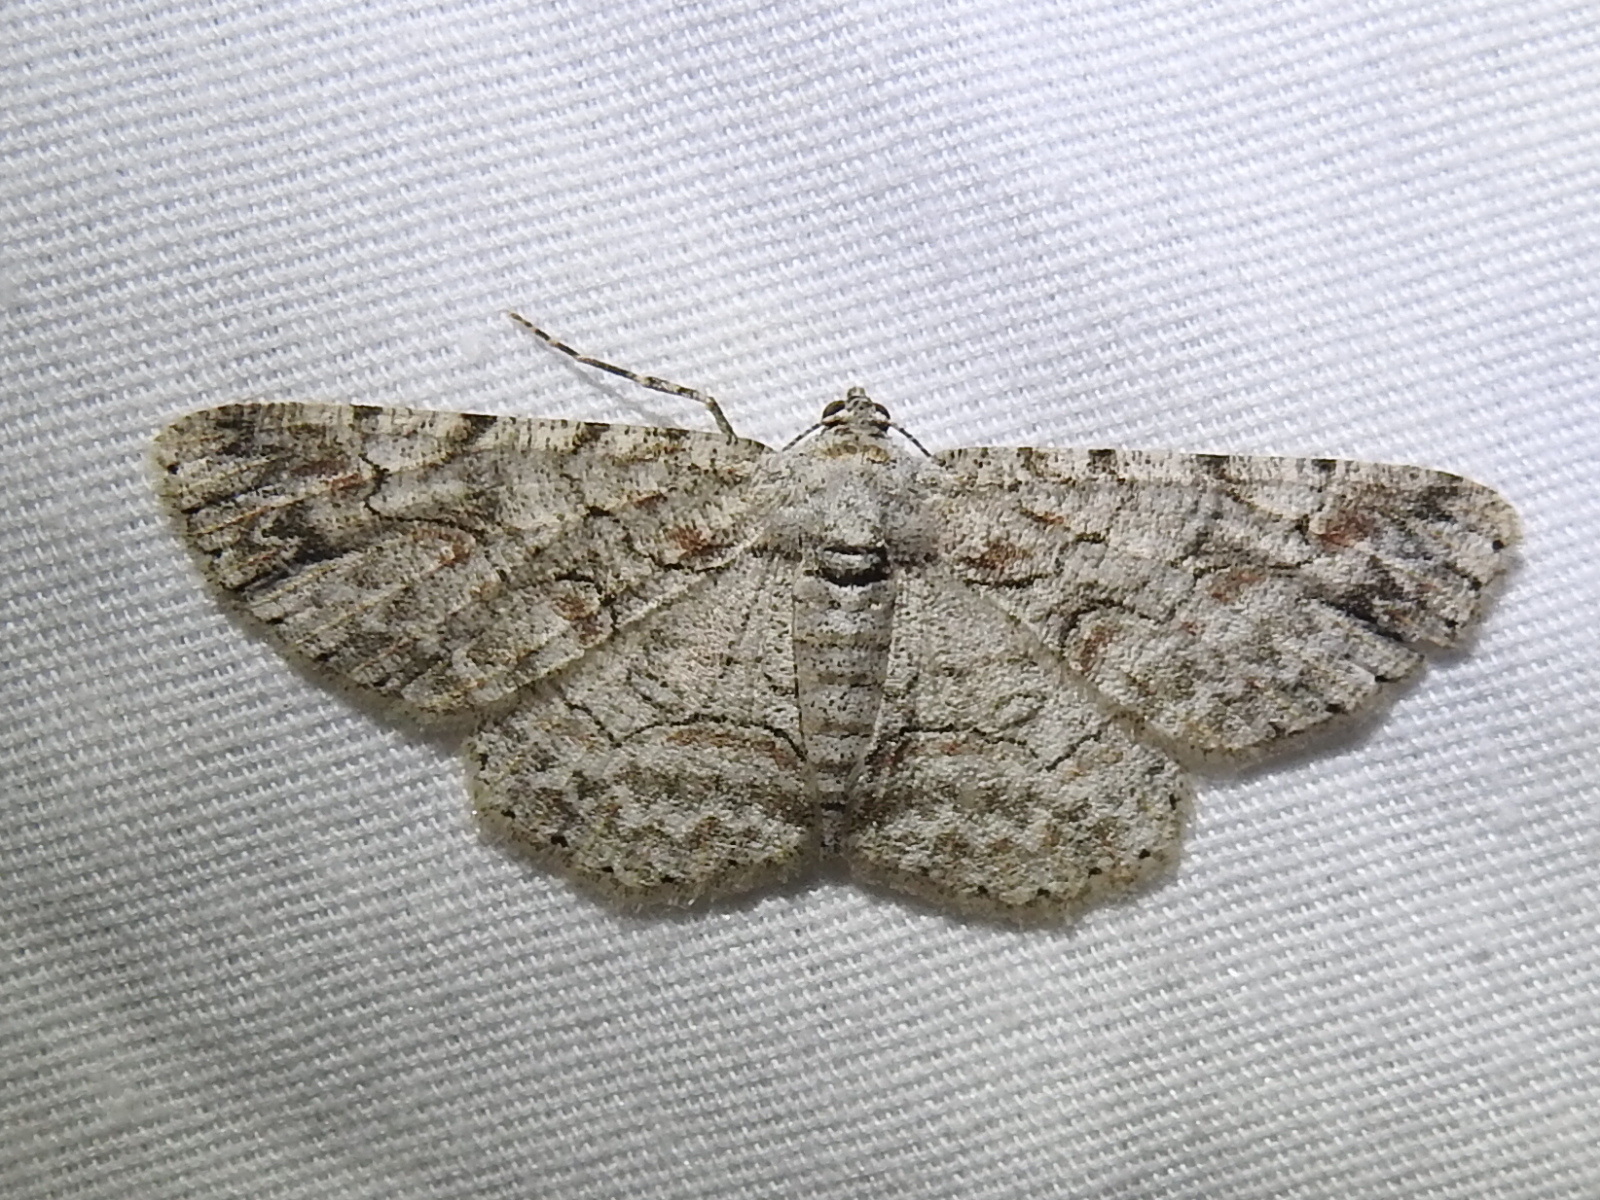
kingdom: Animalia
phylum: Arthropoda
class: Insecta
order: Lepidoptera
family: Geometridae
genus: Iridopsis
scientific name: Iridopsis defectaria
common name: Brown-shaded gray
